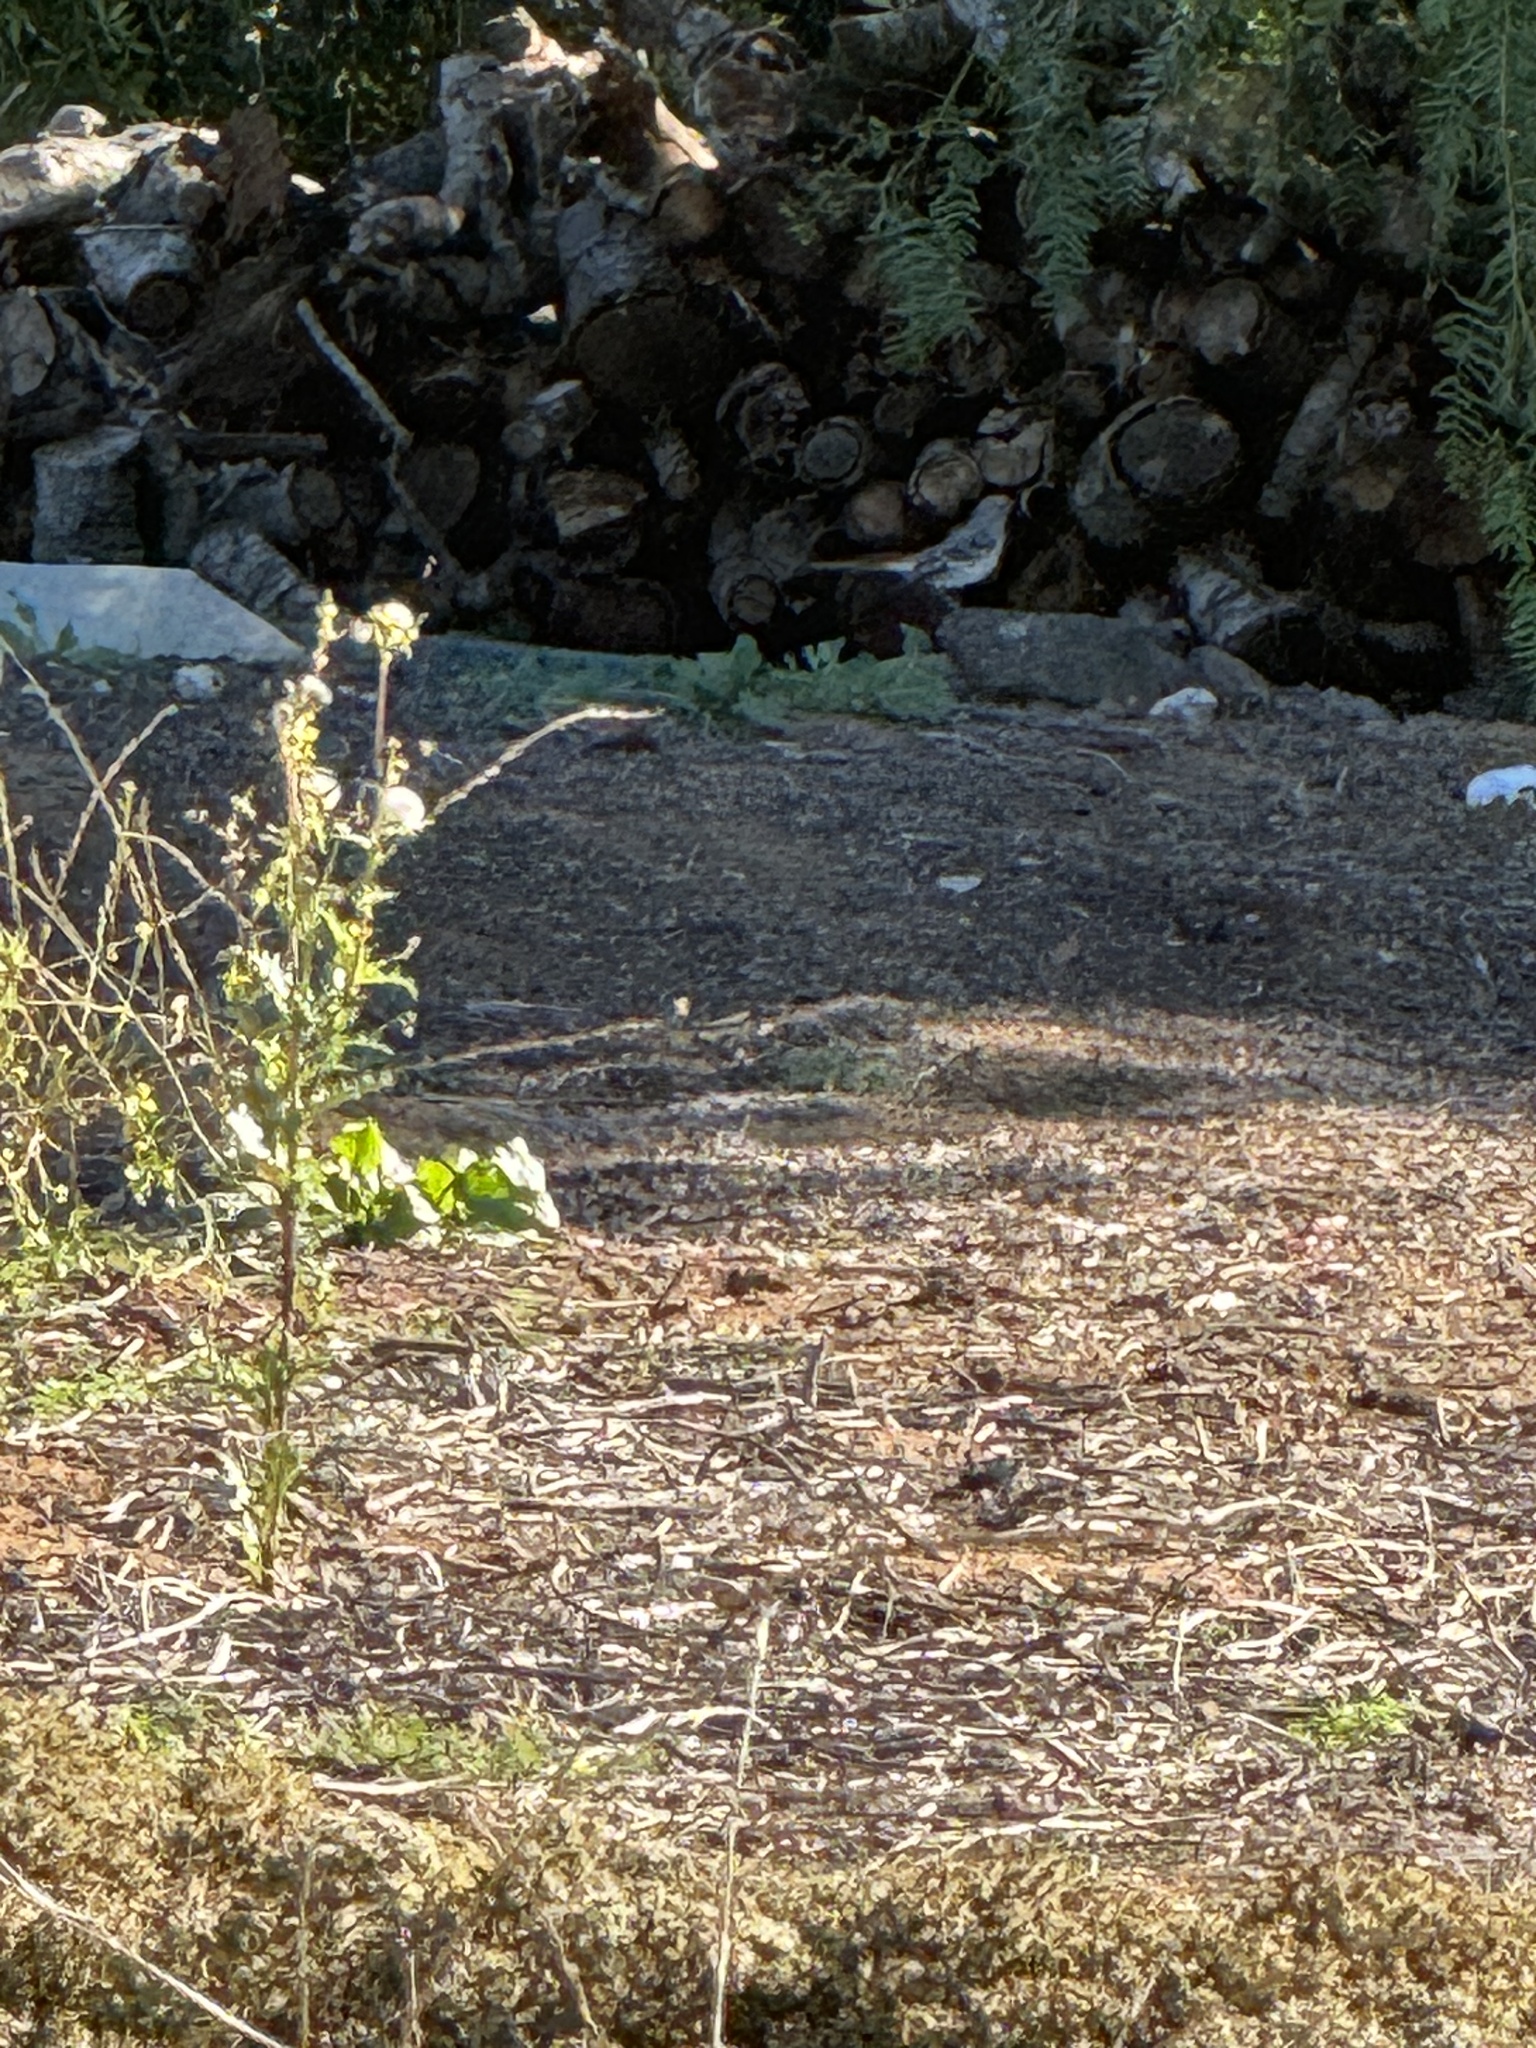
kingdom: Animalia
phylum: Chordata
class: Aves
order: Passeriformes
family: Mimidae
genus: Mimus
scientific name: Mimus polyglottos
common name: Northern mockingbird
